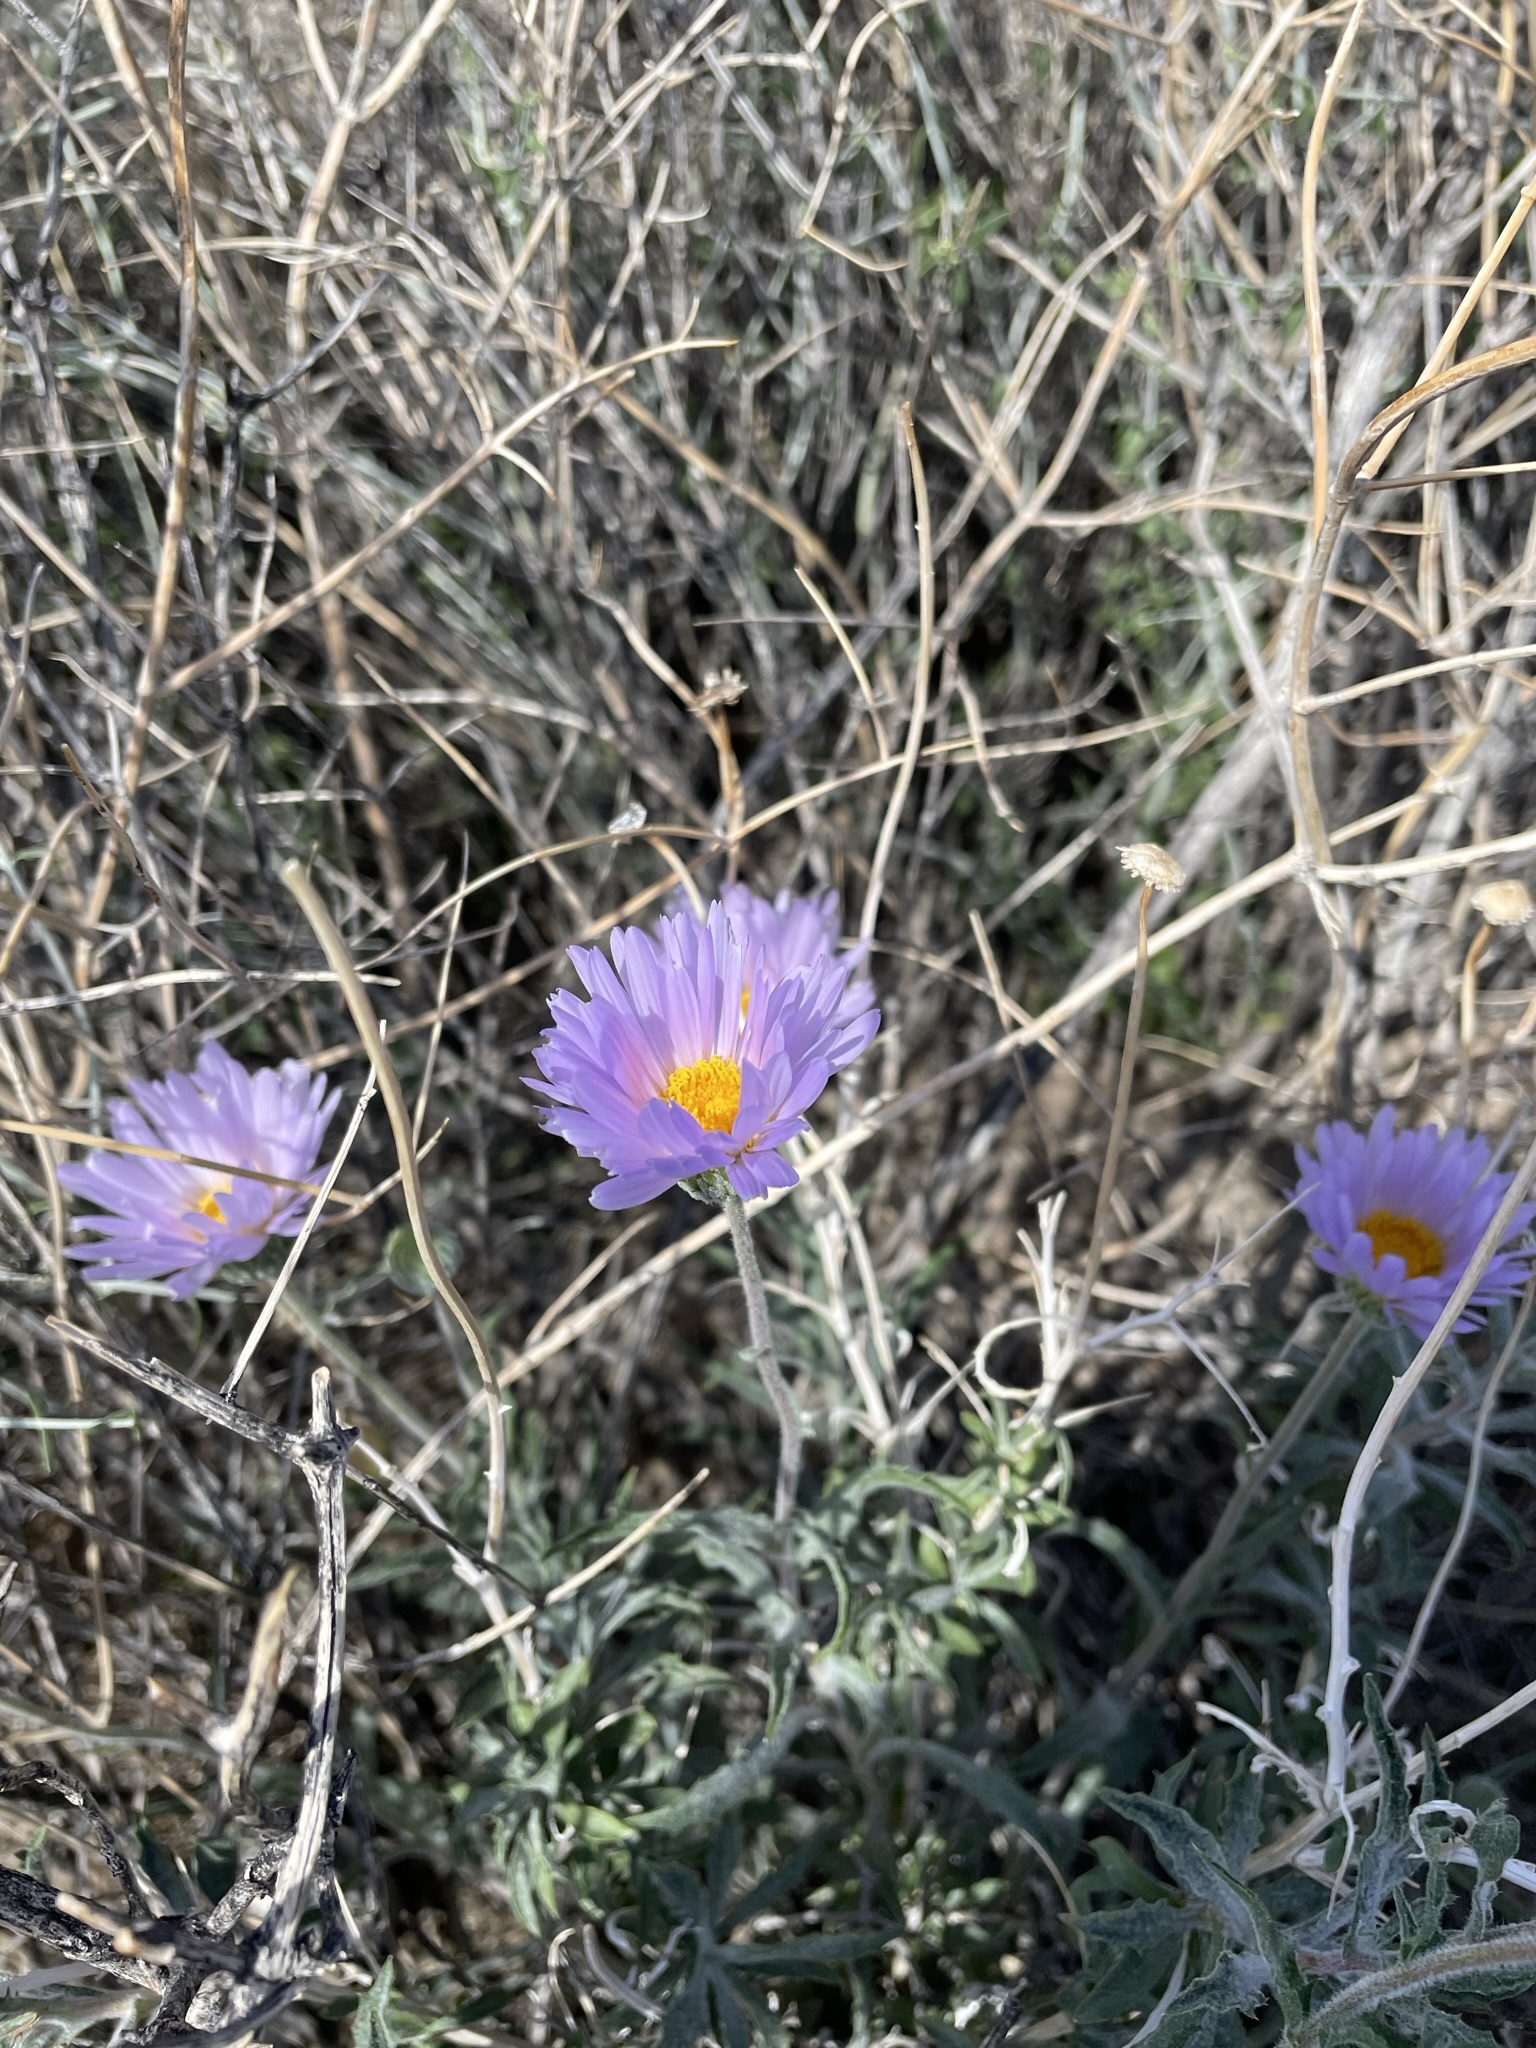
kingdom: Plantae
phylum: Tracheophyta
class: Magnoliopsida
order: Asterales
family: Asteraceae
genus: Xylorhiza
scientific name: Xylorhiza tortifolia
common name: Hurt-leaf woody-aster
